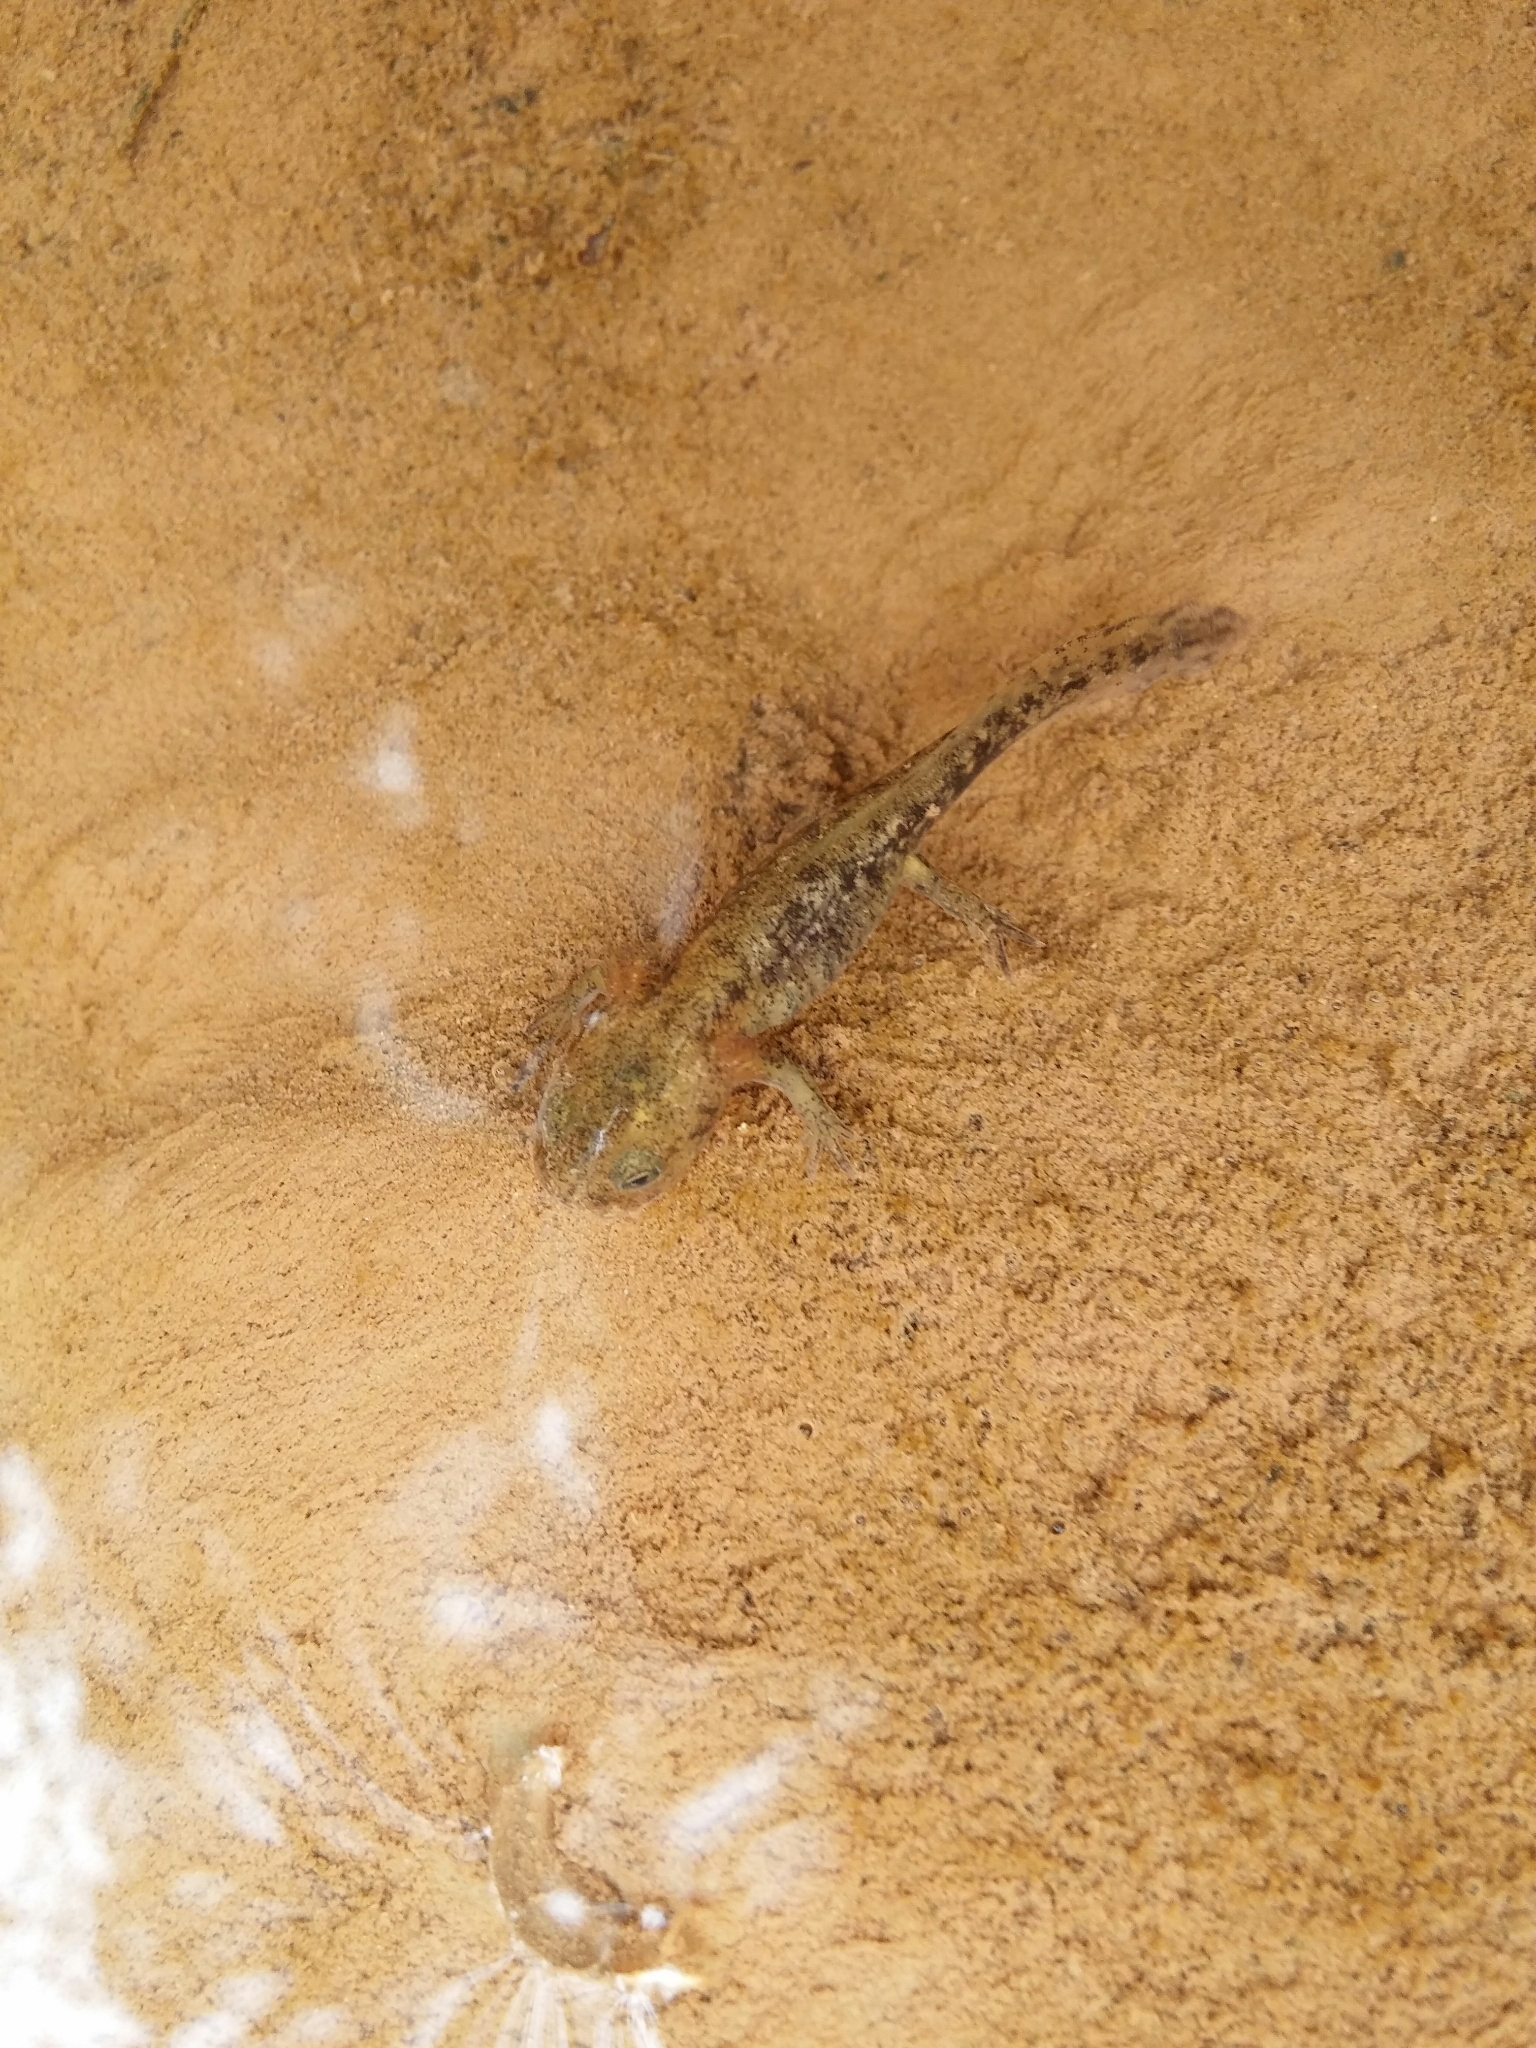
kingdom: Animalia
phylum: Chordata
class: Amphibia
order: Caudata
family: Salamandridae
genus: Salamandra
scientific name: Salamandra salamandra
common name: Fire salamander
